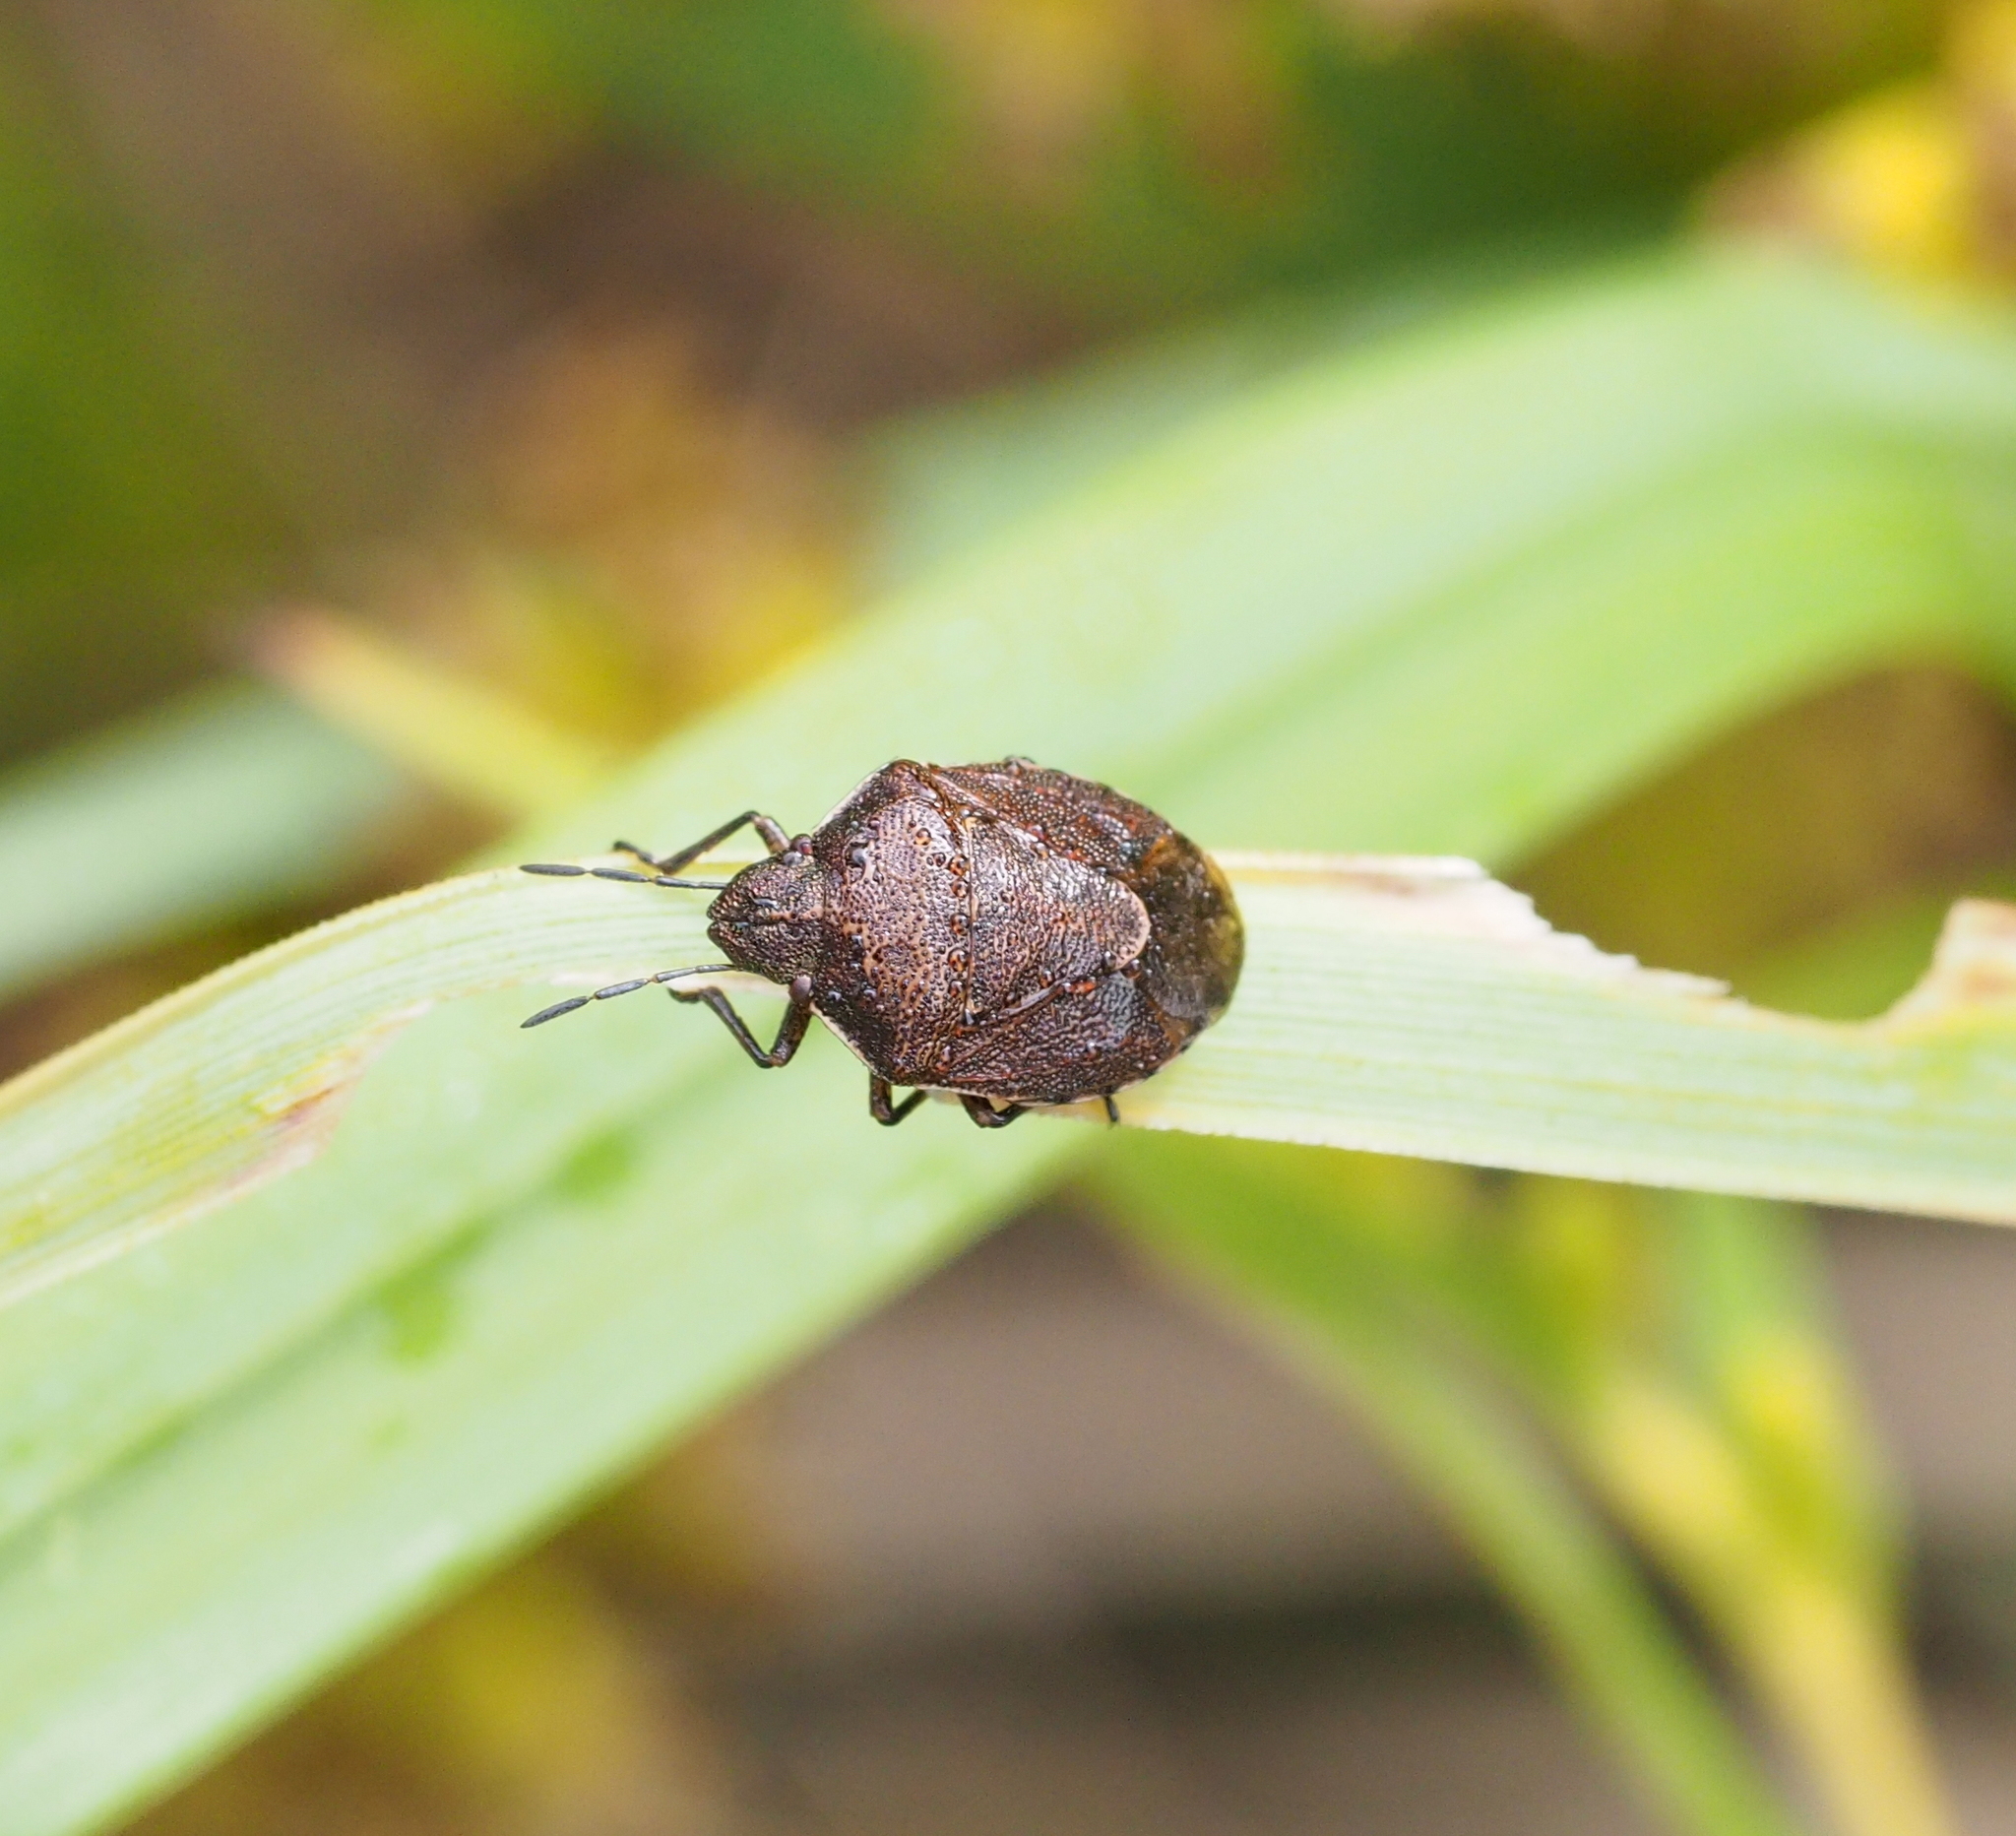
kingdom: Animalia
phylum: Arthropoda
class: Insecta
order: Hemiptera
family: Pentatomidae
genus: Rubiconia
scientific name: Rubiconia intermedia
